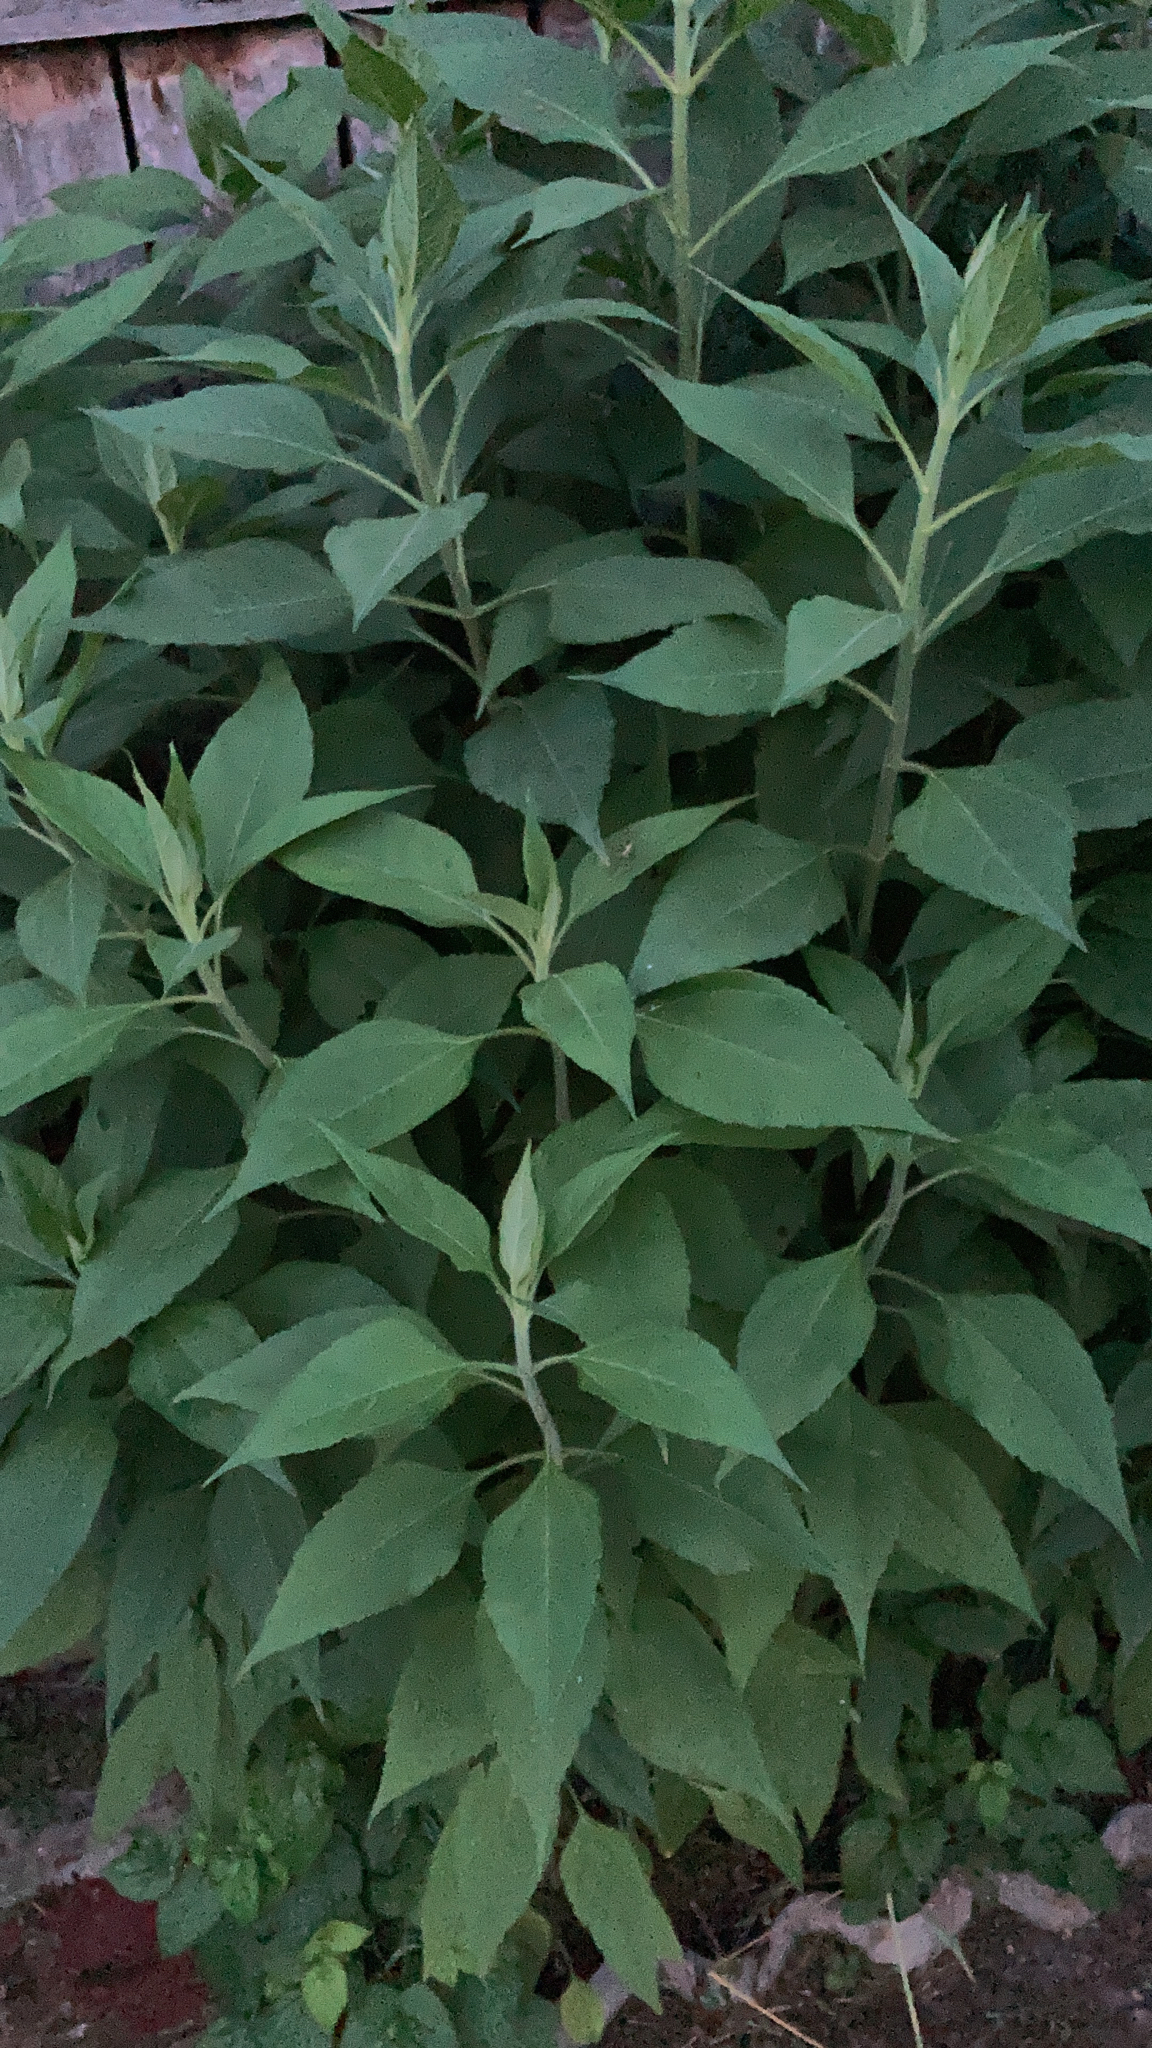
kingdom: Plantae
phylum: Tracheophyta
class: Magnoliopsida
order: Asterales
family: Asteraceae
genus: Helianthus
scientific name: Helianthus tuberosus
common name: Jerusalem artichoke
